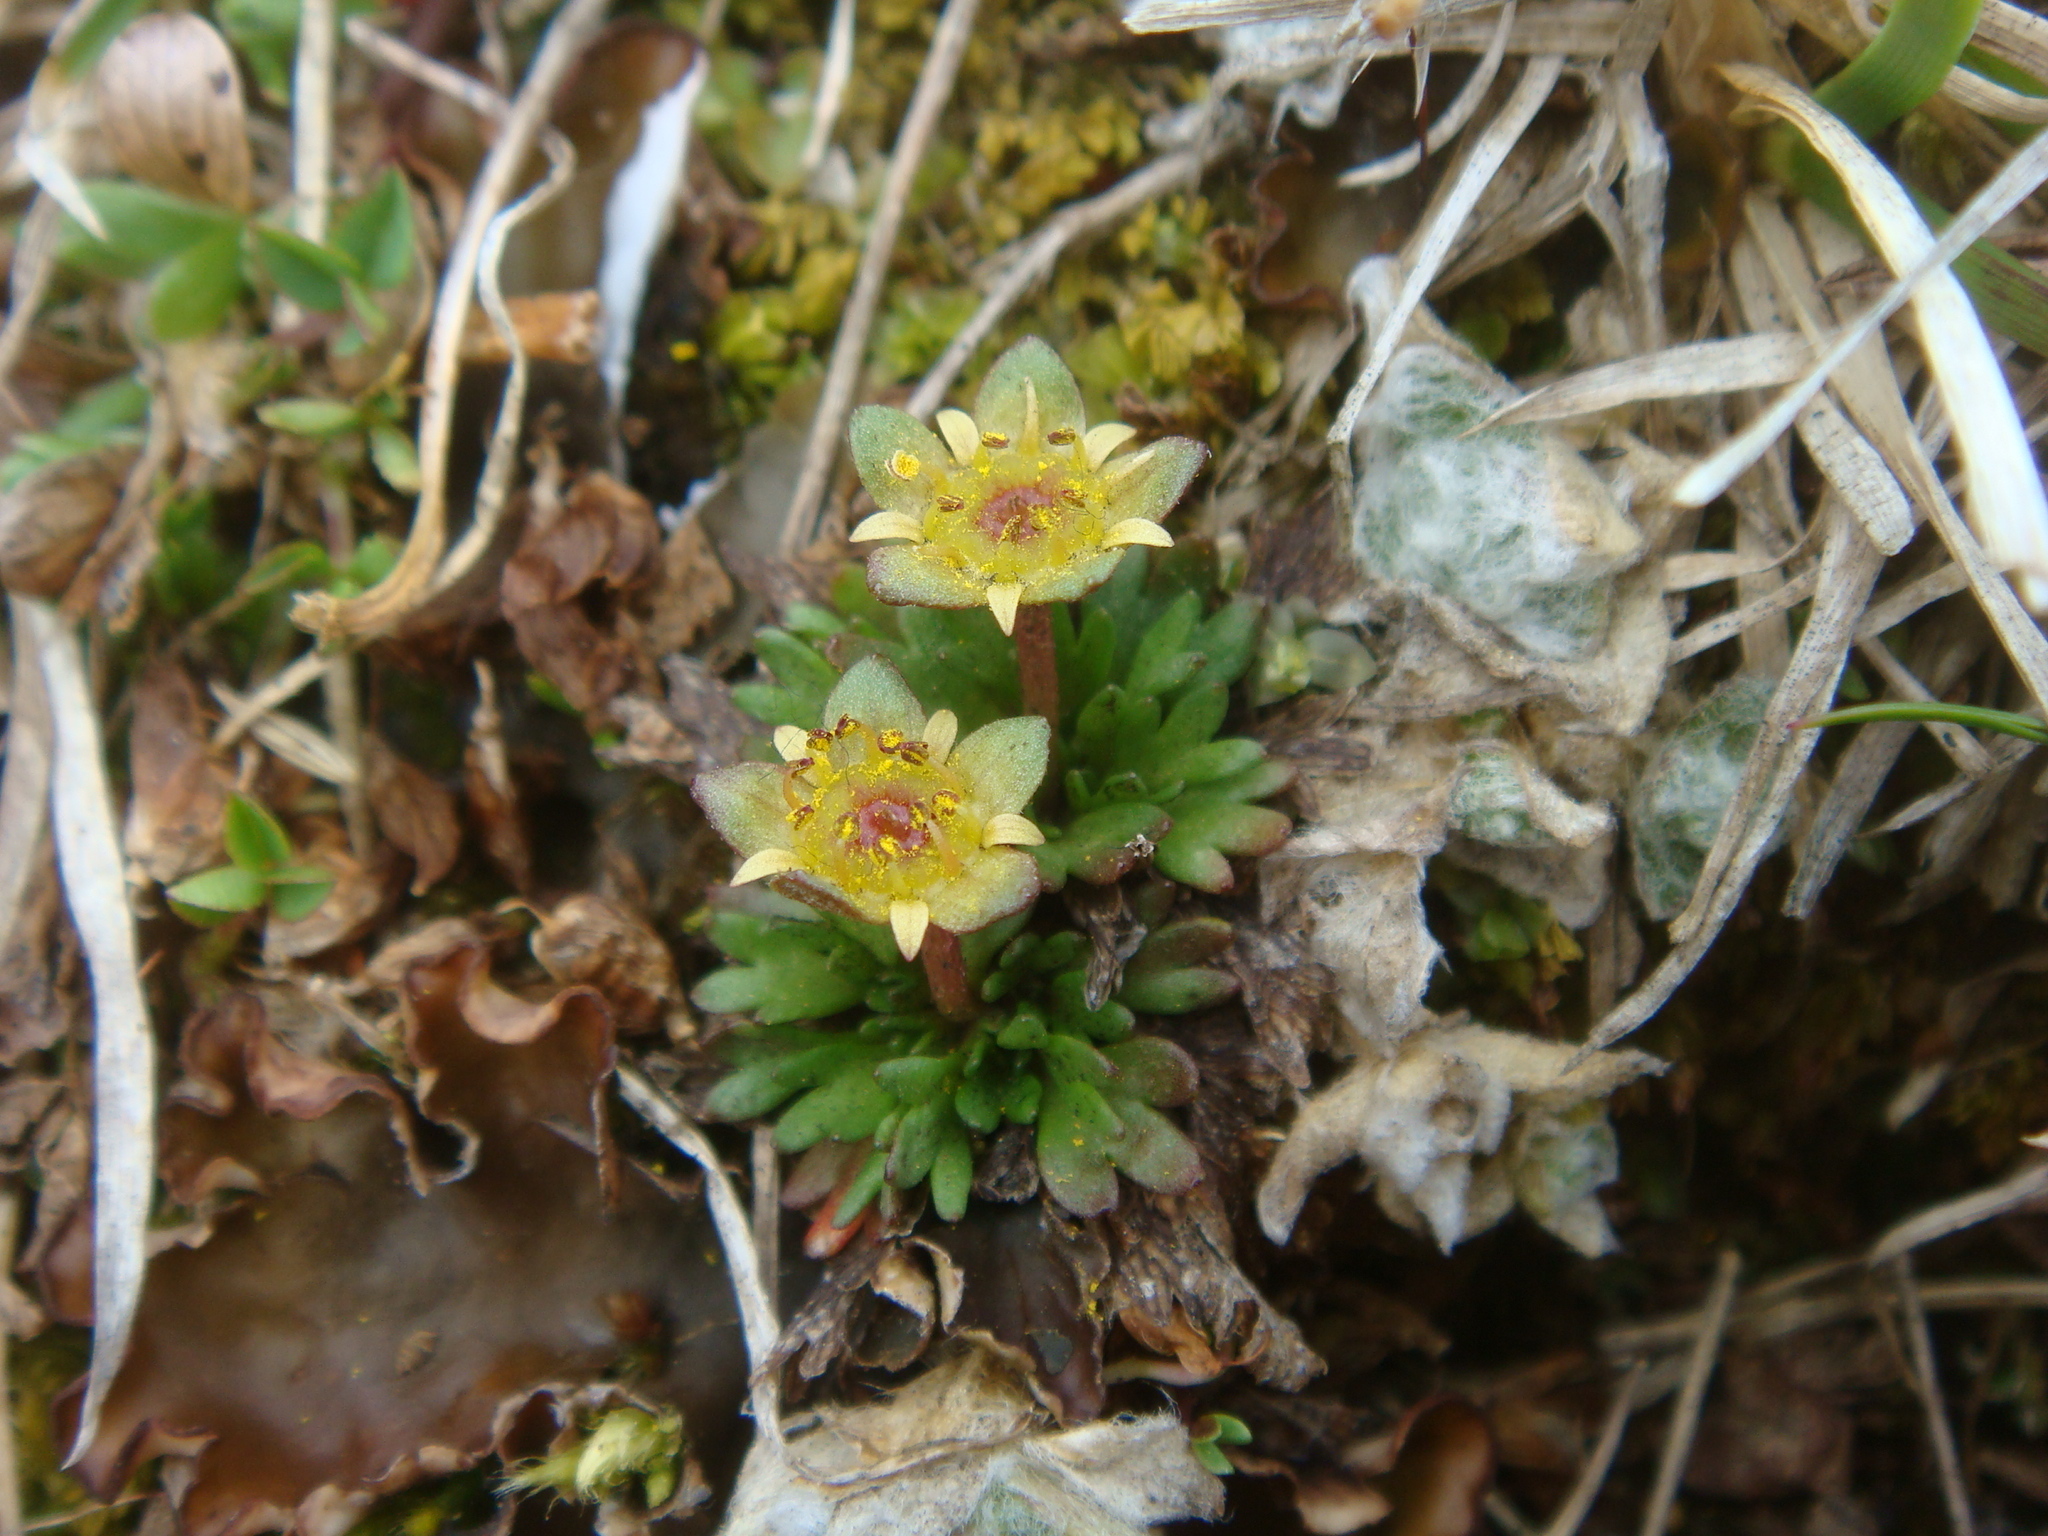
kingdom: Plantae
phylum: Tracheophyta
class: Magnoliopsida
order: Saxifragales
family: Saxifragaceae
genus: Saxifraga
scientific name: Saxifraga styriaca
